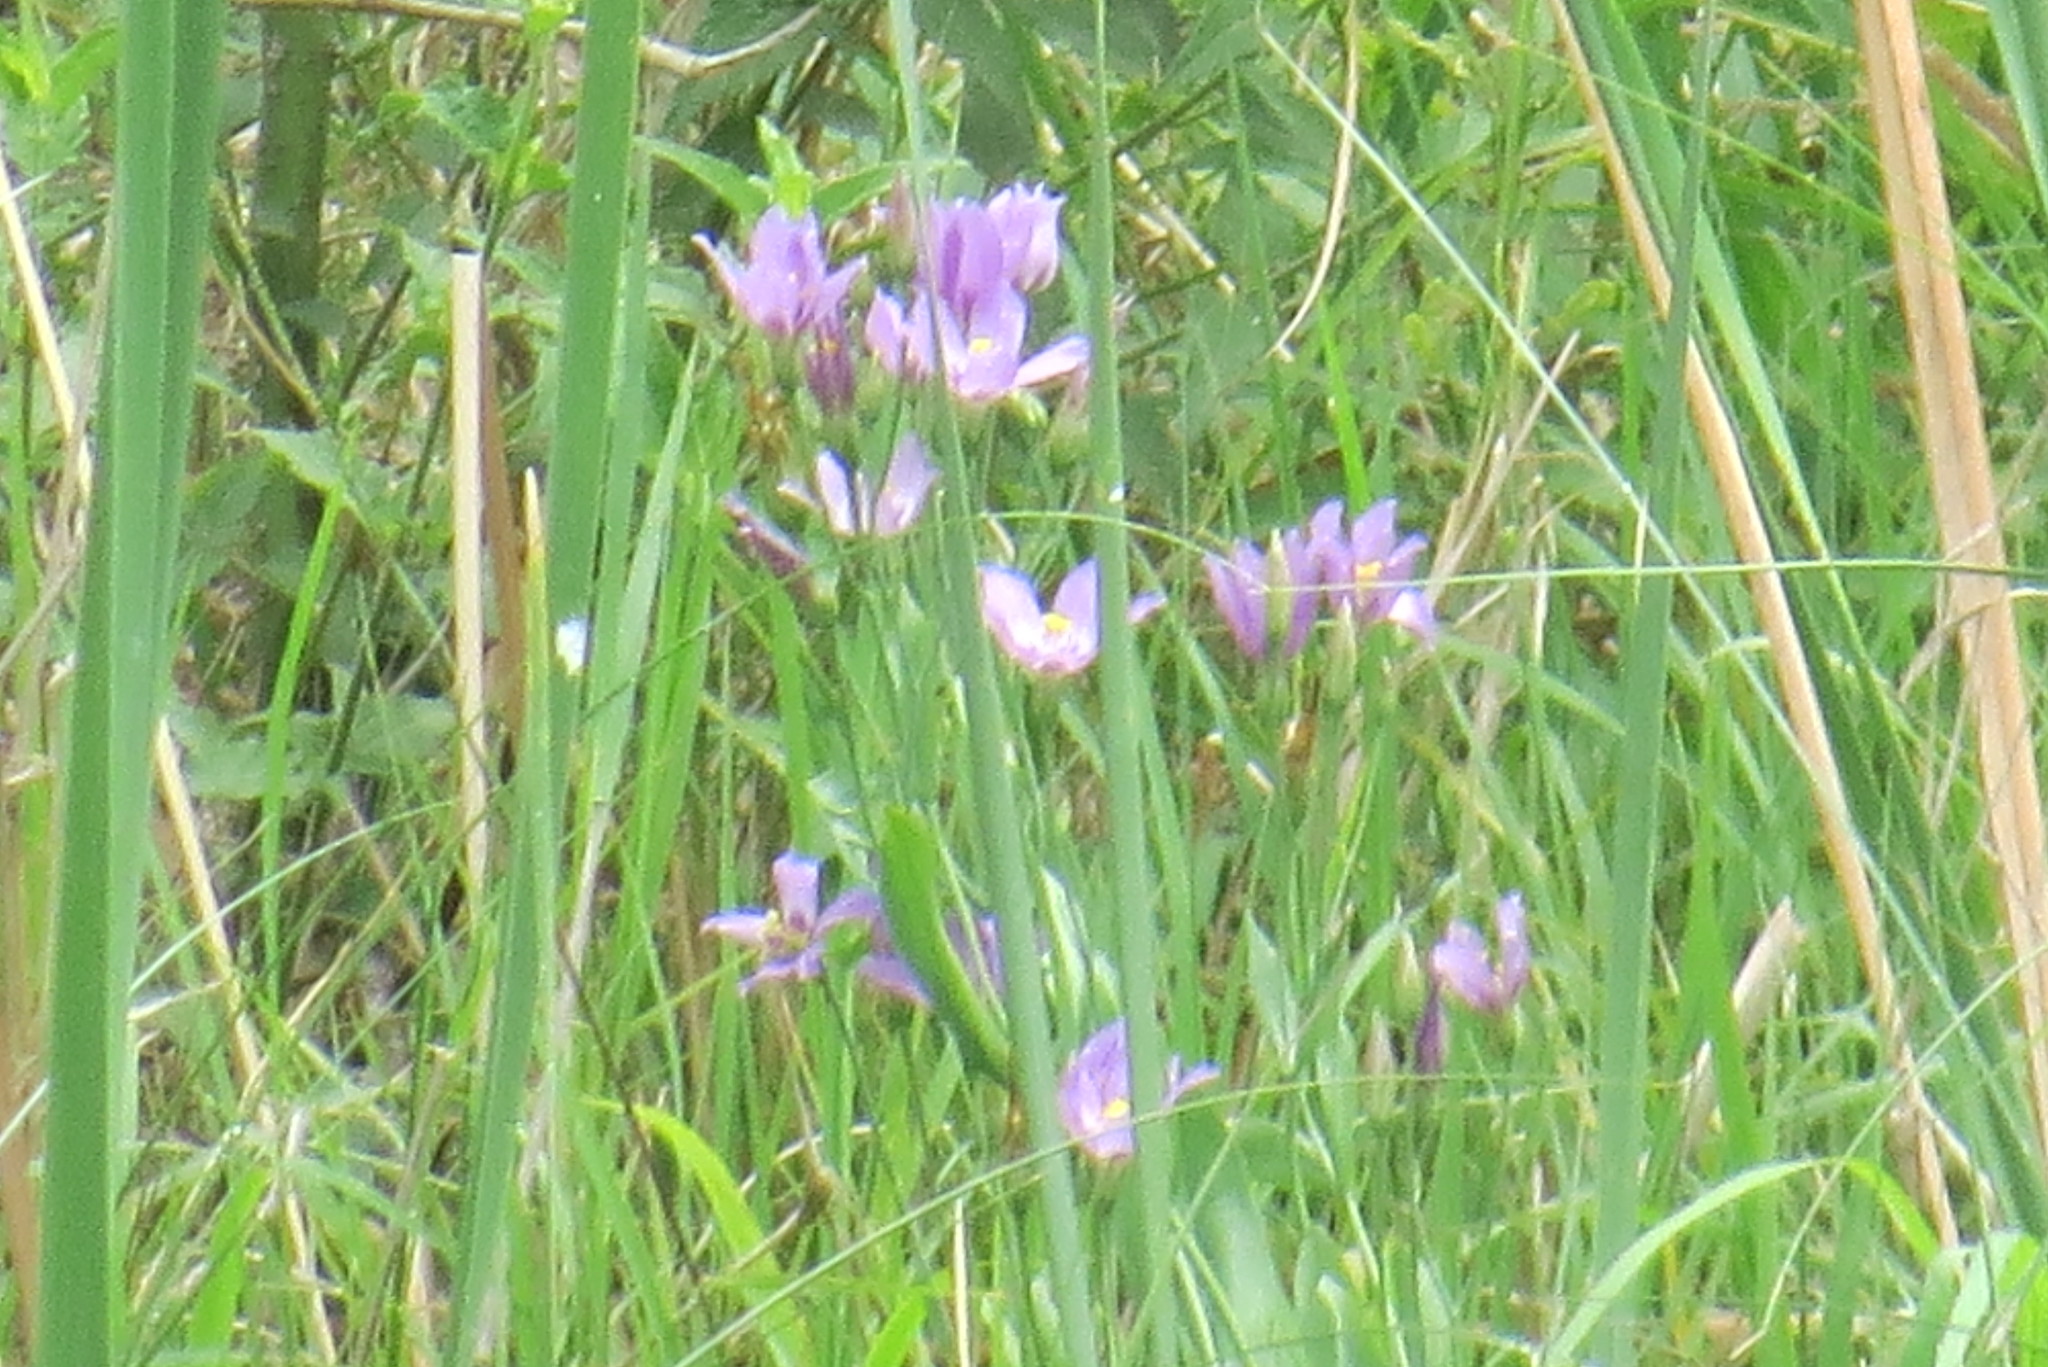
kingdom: Plantae
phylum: Tracheophyta
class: Magnoliopsida
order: Gentianales
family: Gentianaceae
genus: Eustoma
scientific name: Eustoma exaltatum
